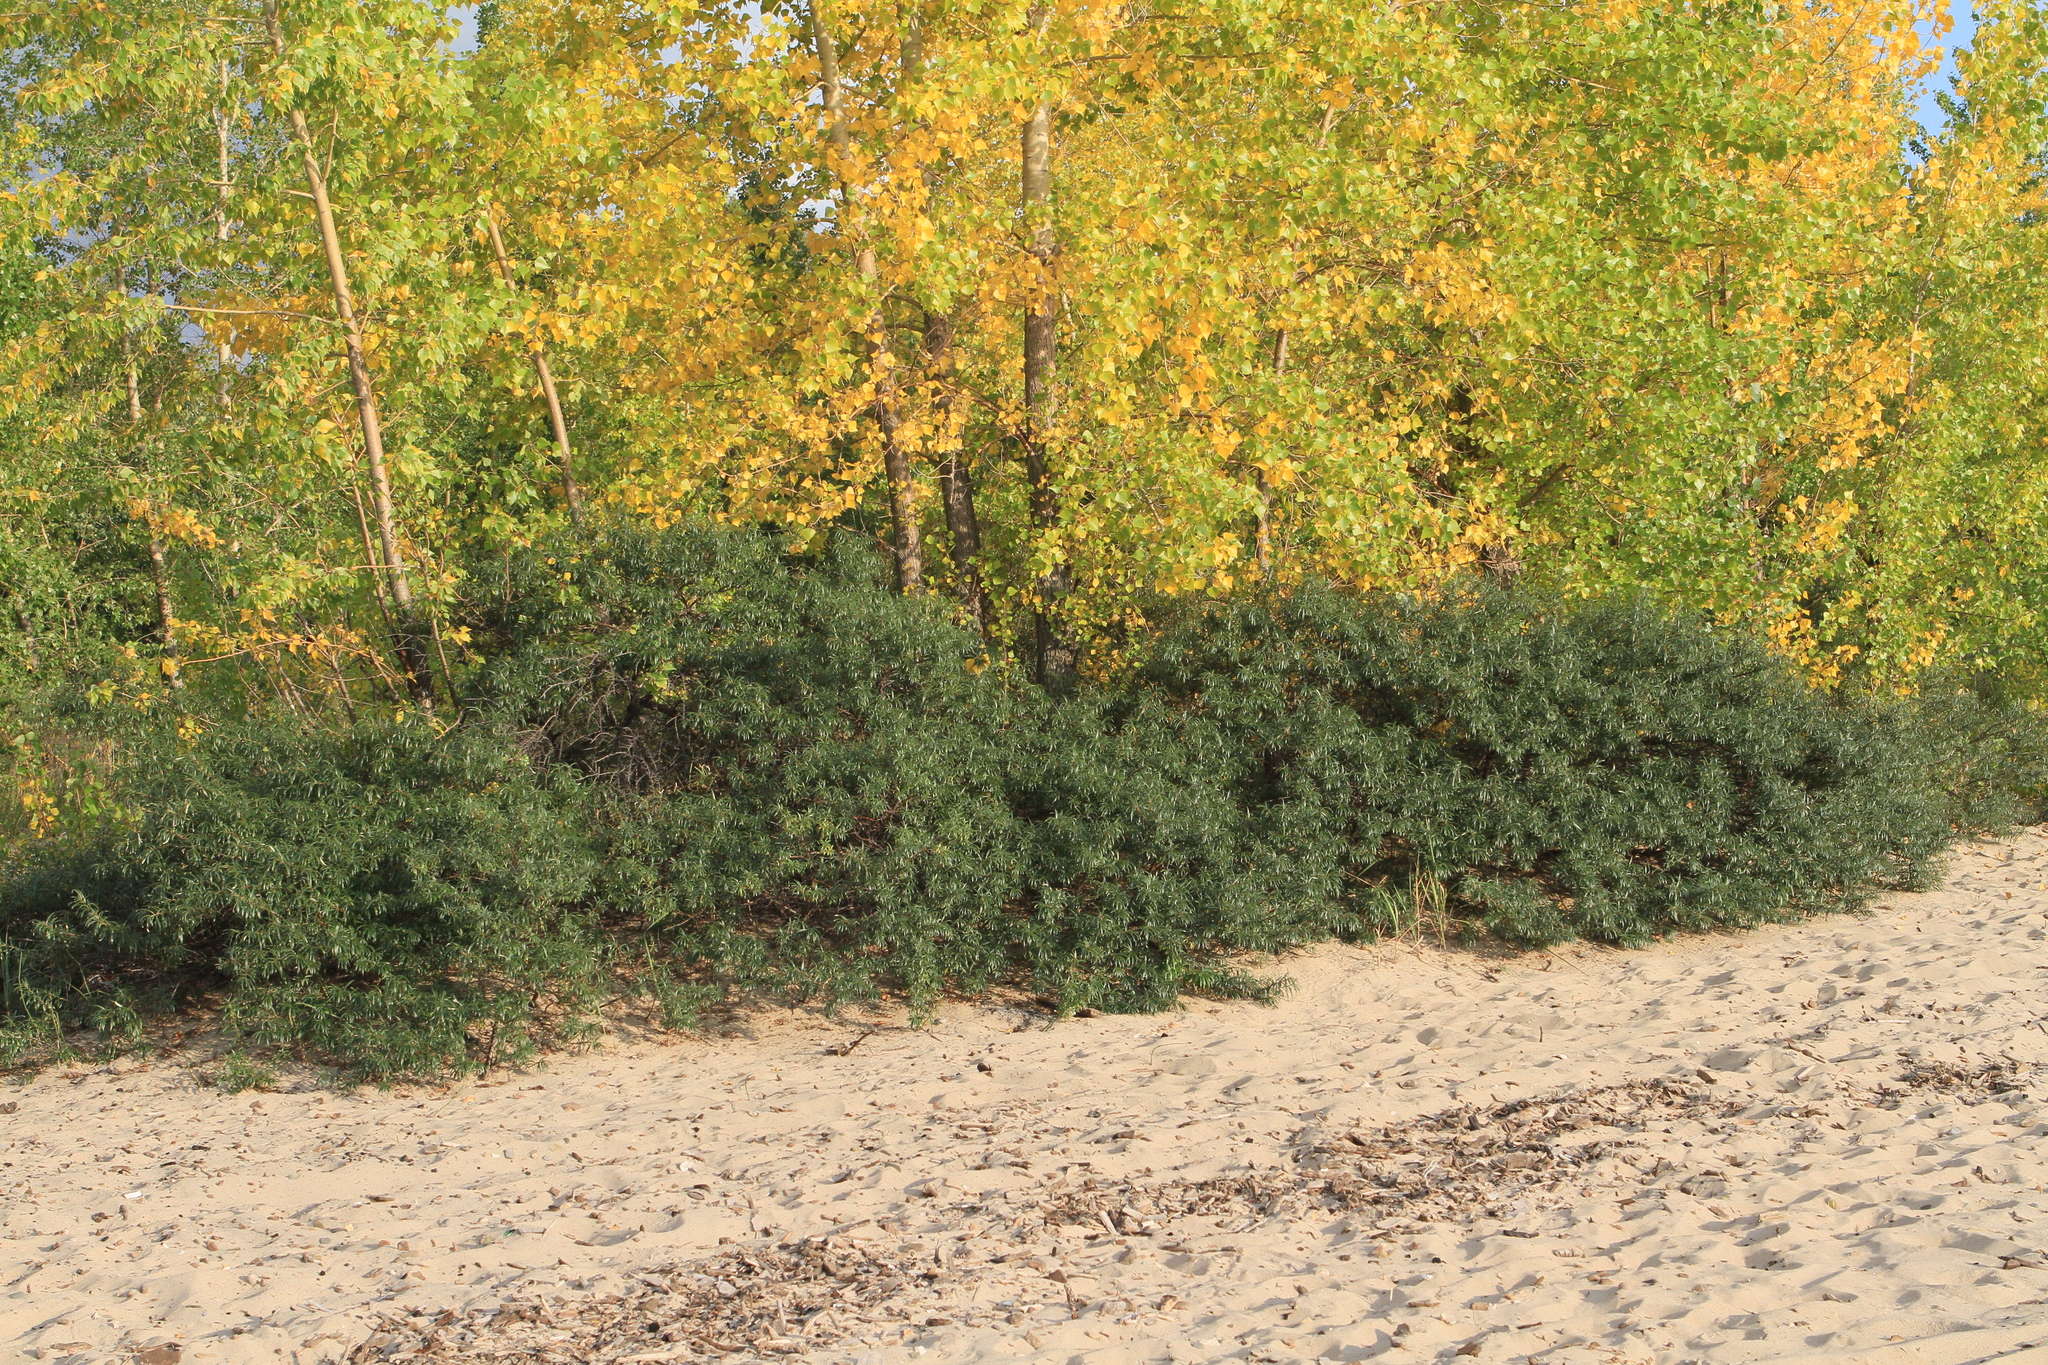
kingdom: Plantae
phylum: Tracheophyta
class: Magnoliopsida
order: Rosales
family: Elaeagnaceae
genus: Hippophae
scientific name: Hippophae rhamnoides
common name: Sea-buckthorn
